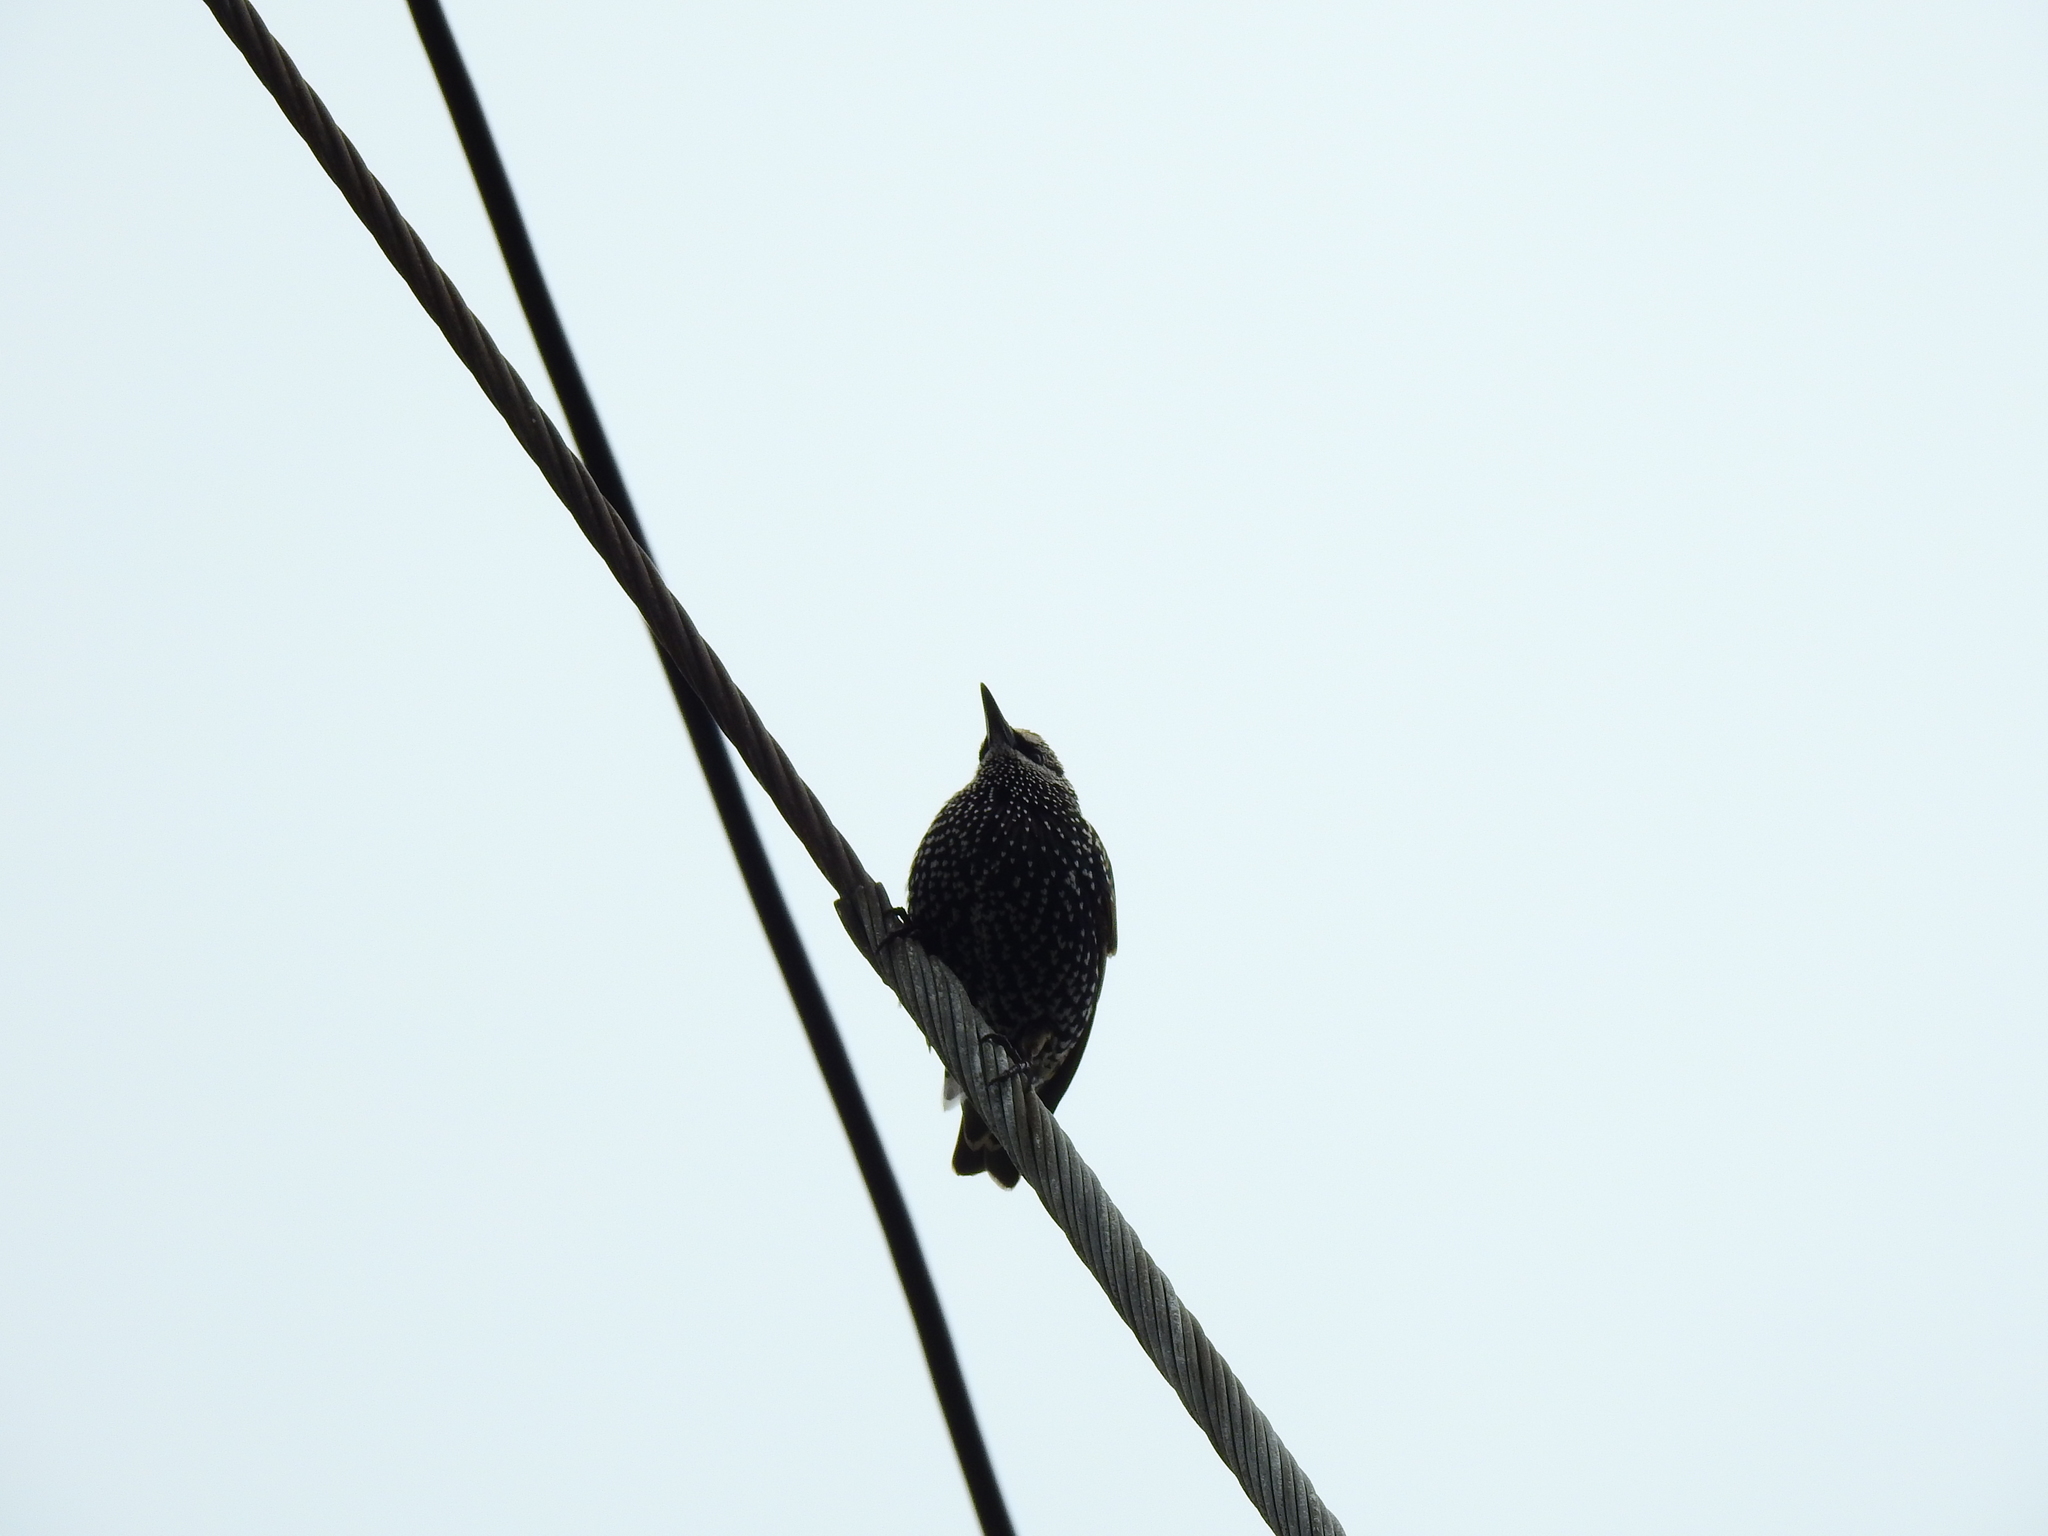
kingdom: Animalia
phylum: Chordata
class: Aves
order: Passeriformes
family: Sturnidae
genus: Sturnus
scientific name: Sturnus vulgaris
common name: Common starling
